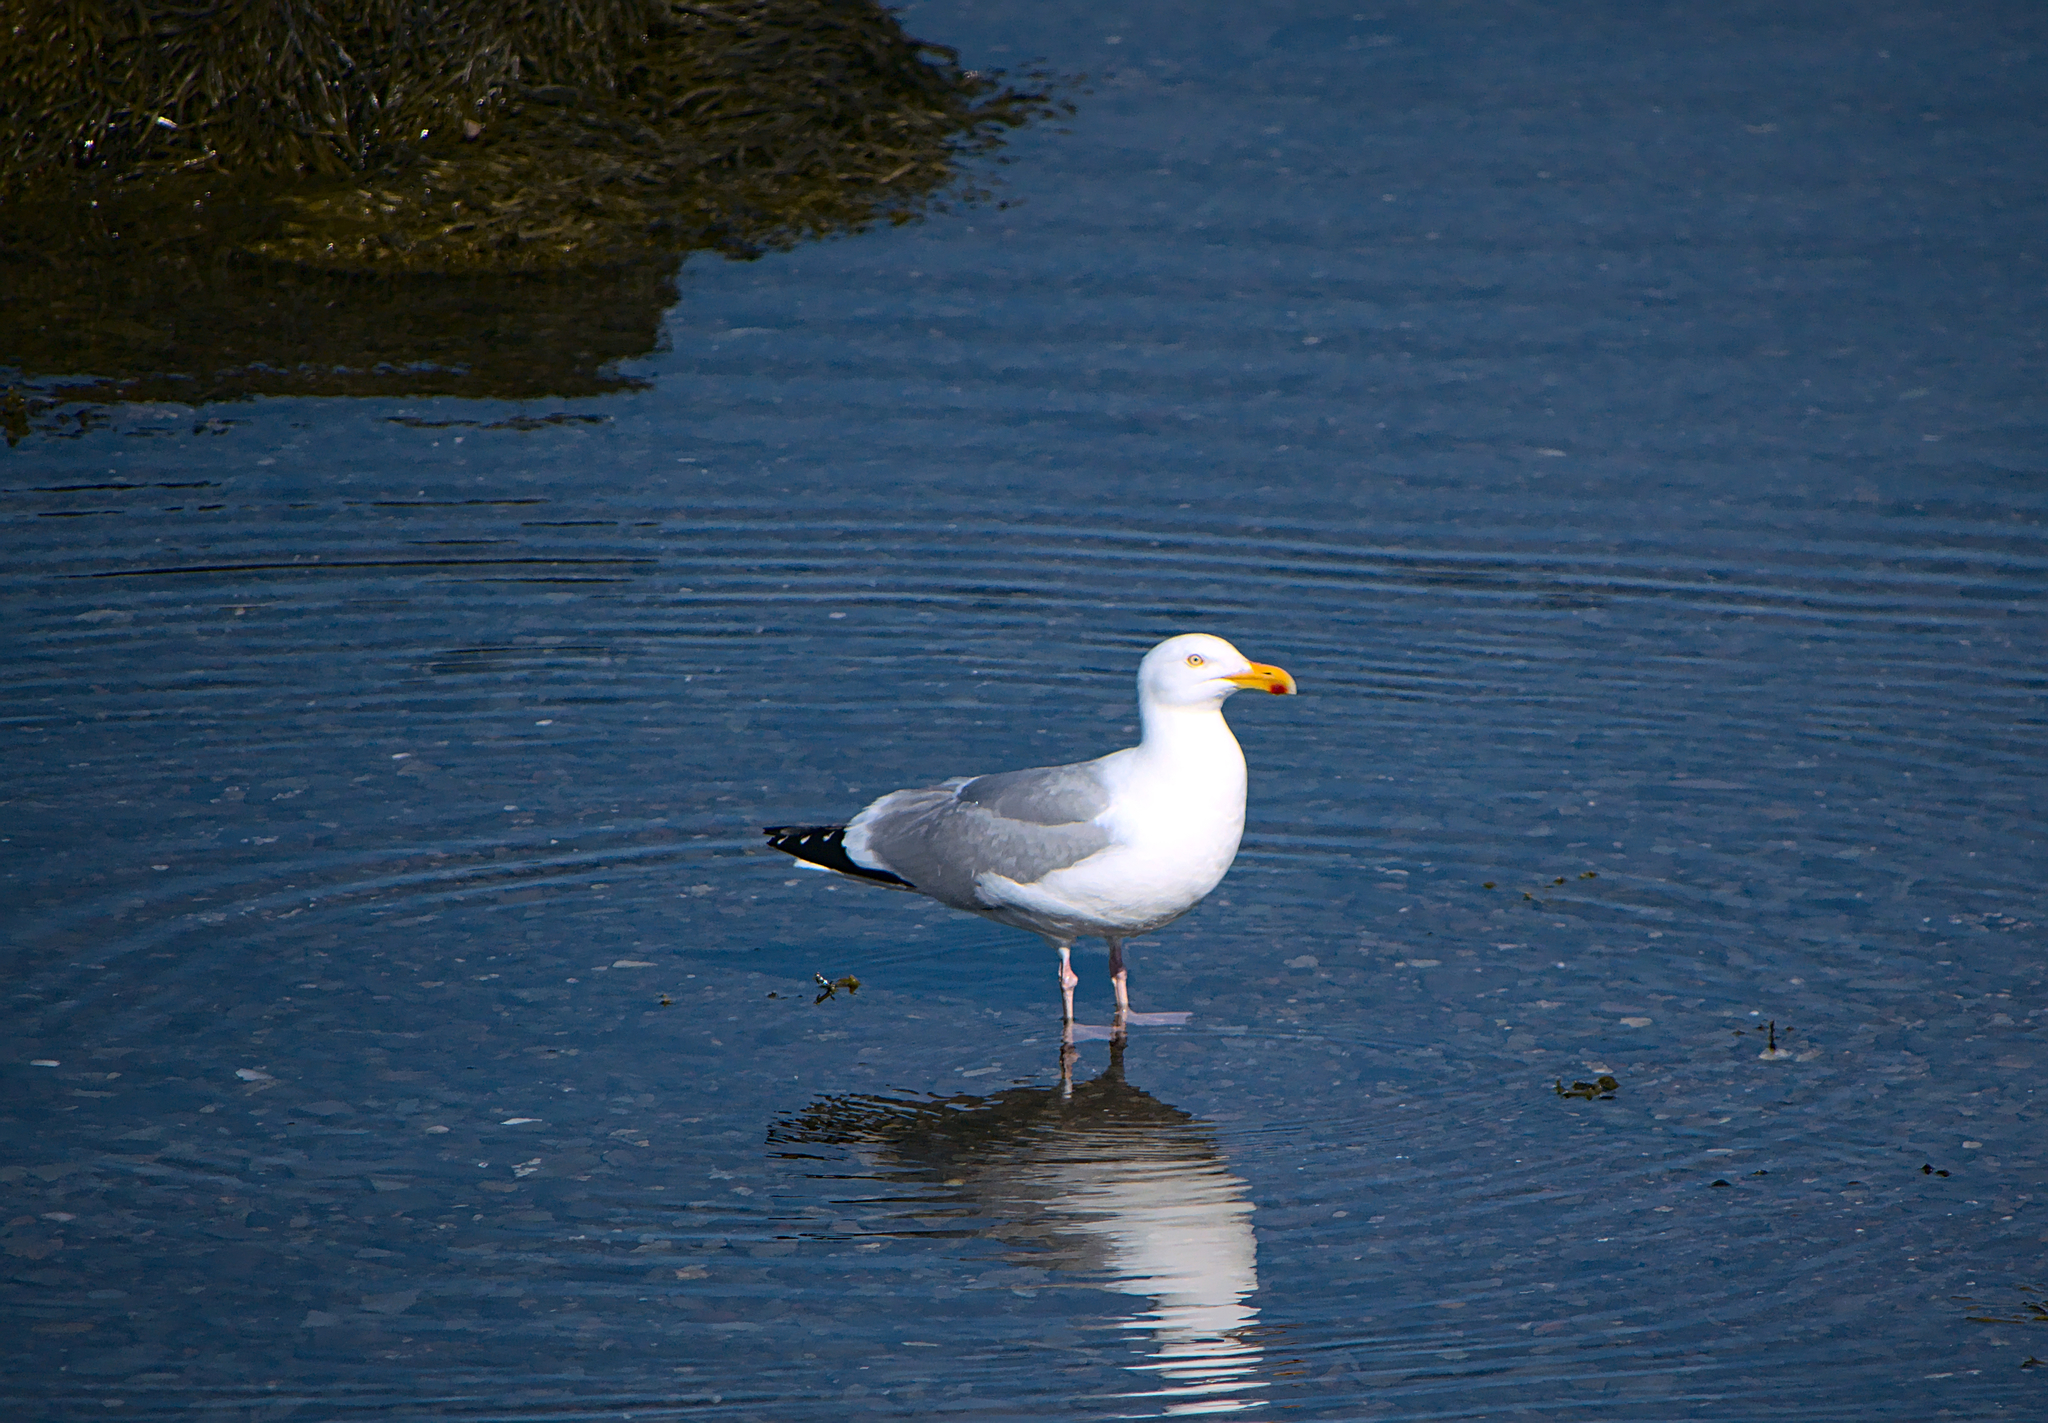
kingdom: Animalia
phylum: Chordata
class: Aves
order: Charadriiformes
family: Laridae
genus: Larus
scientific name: Larus argentatus
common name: Herring gull
